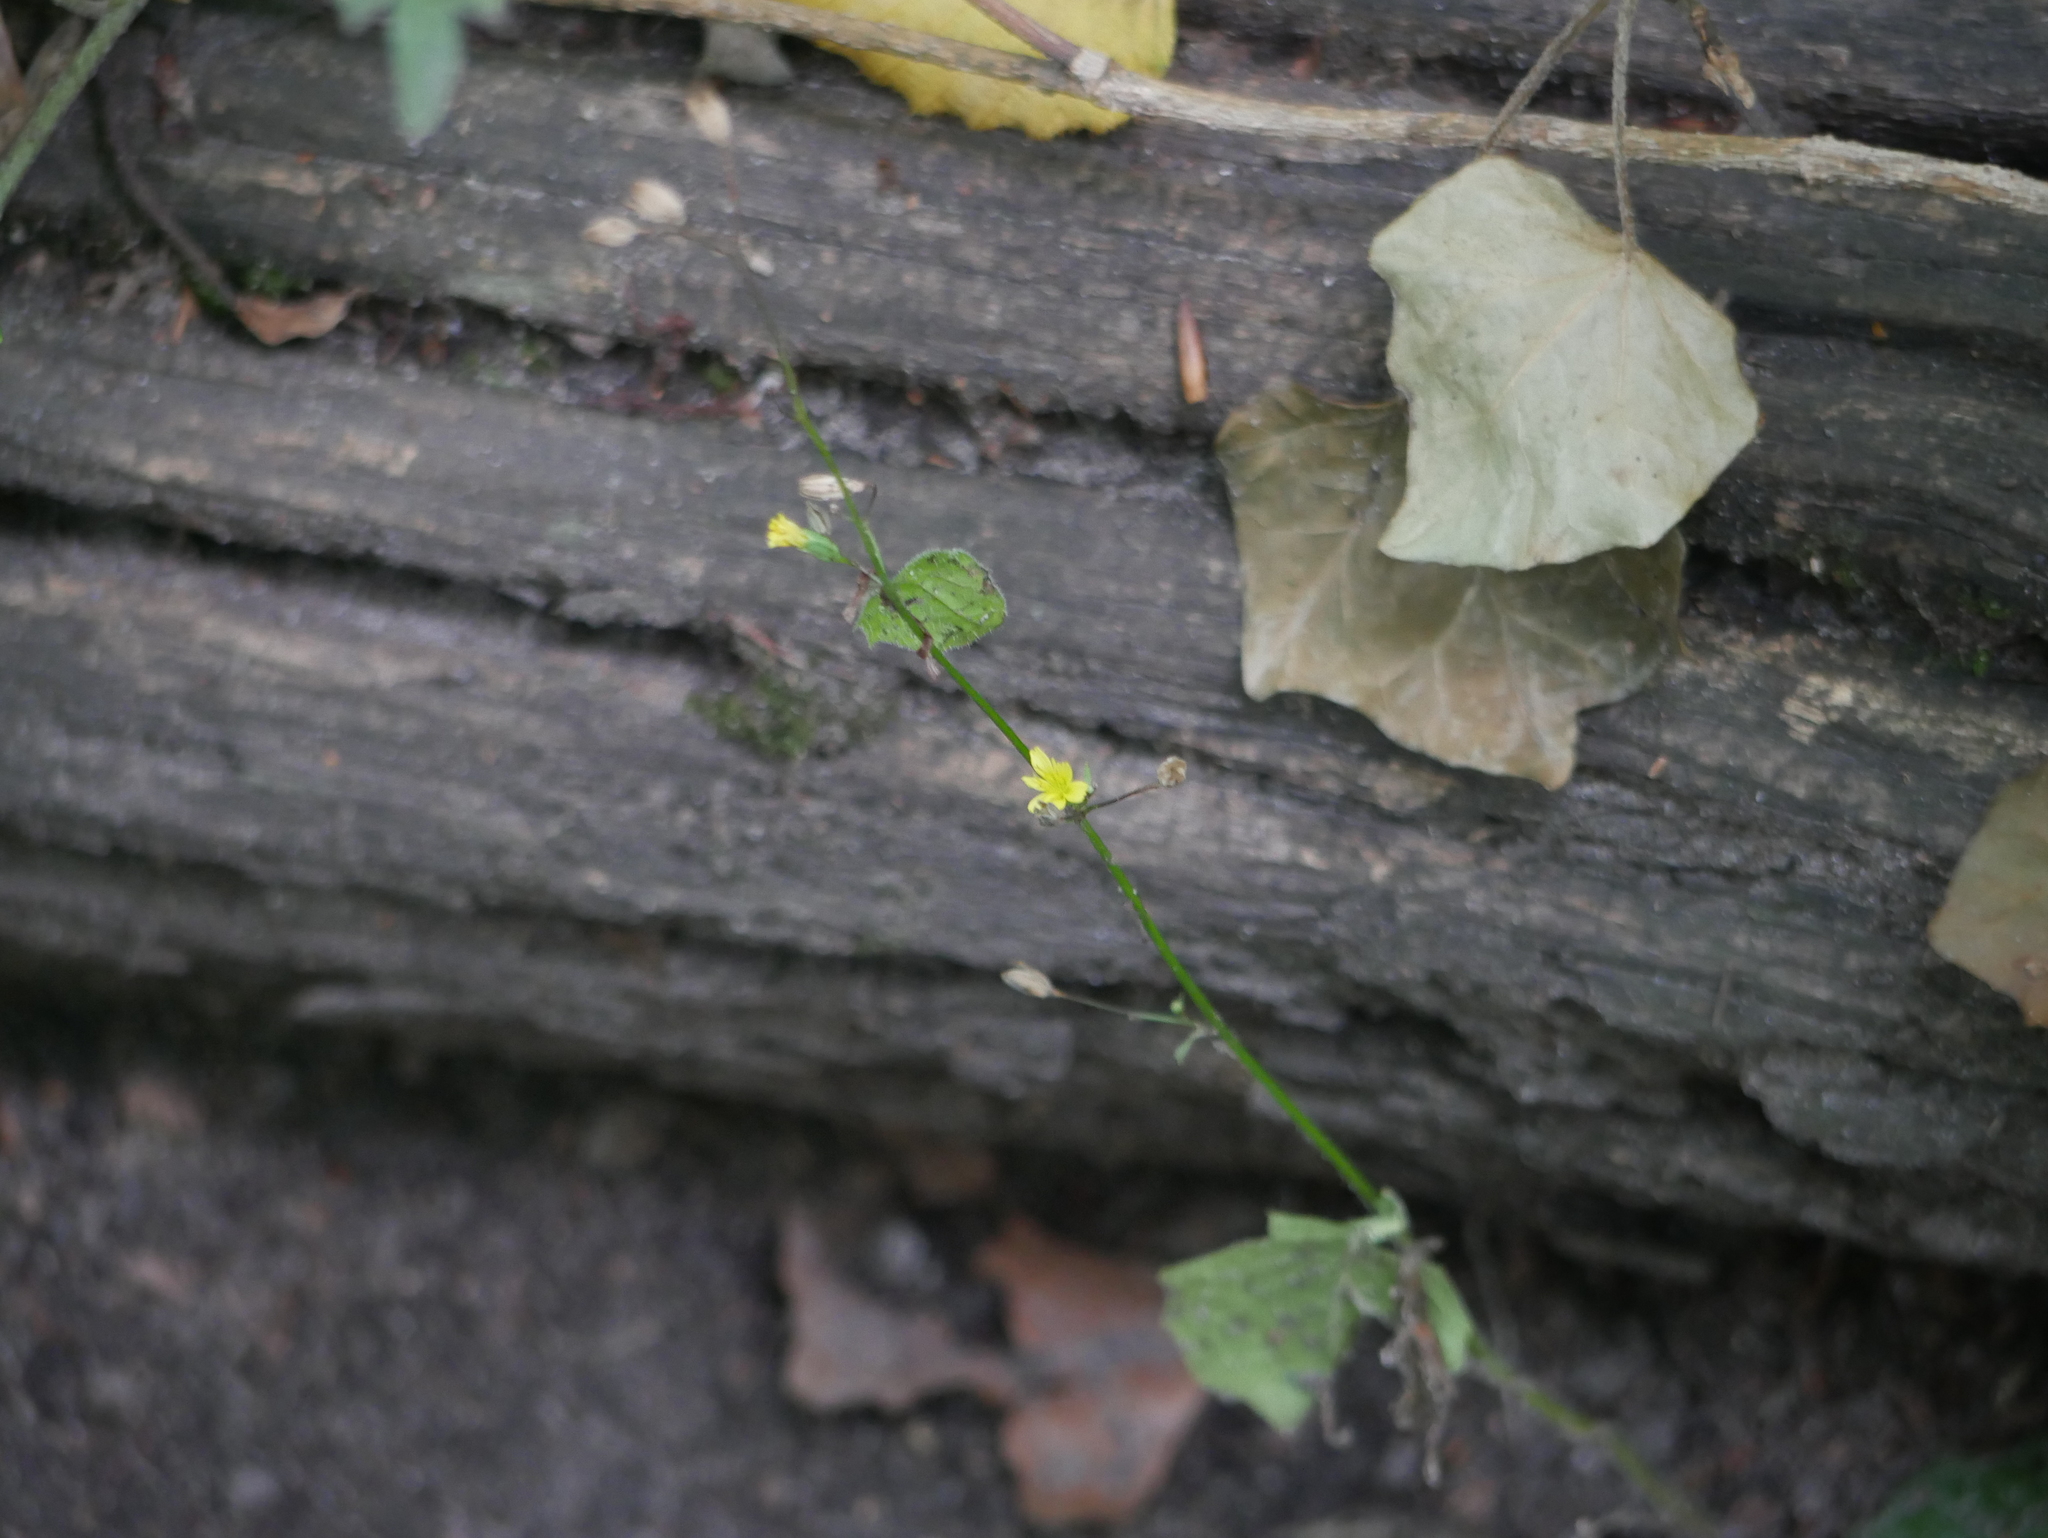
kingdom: Plantae
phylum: Tracheophyta
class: Magnoliopsida
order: Asterales
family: Asteraceae
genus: Lapsana
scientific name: Lapsana communis
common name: Nipplewort
